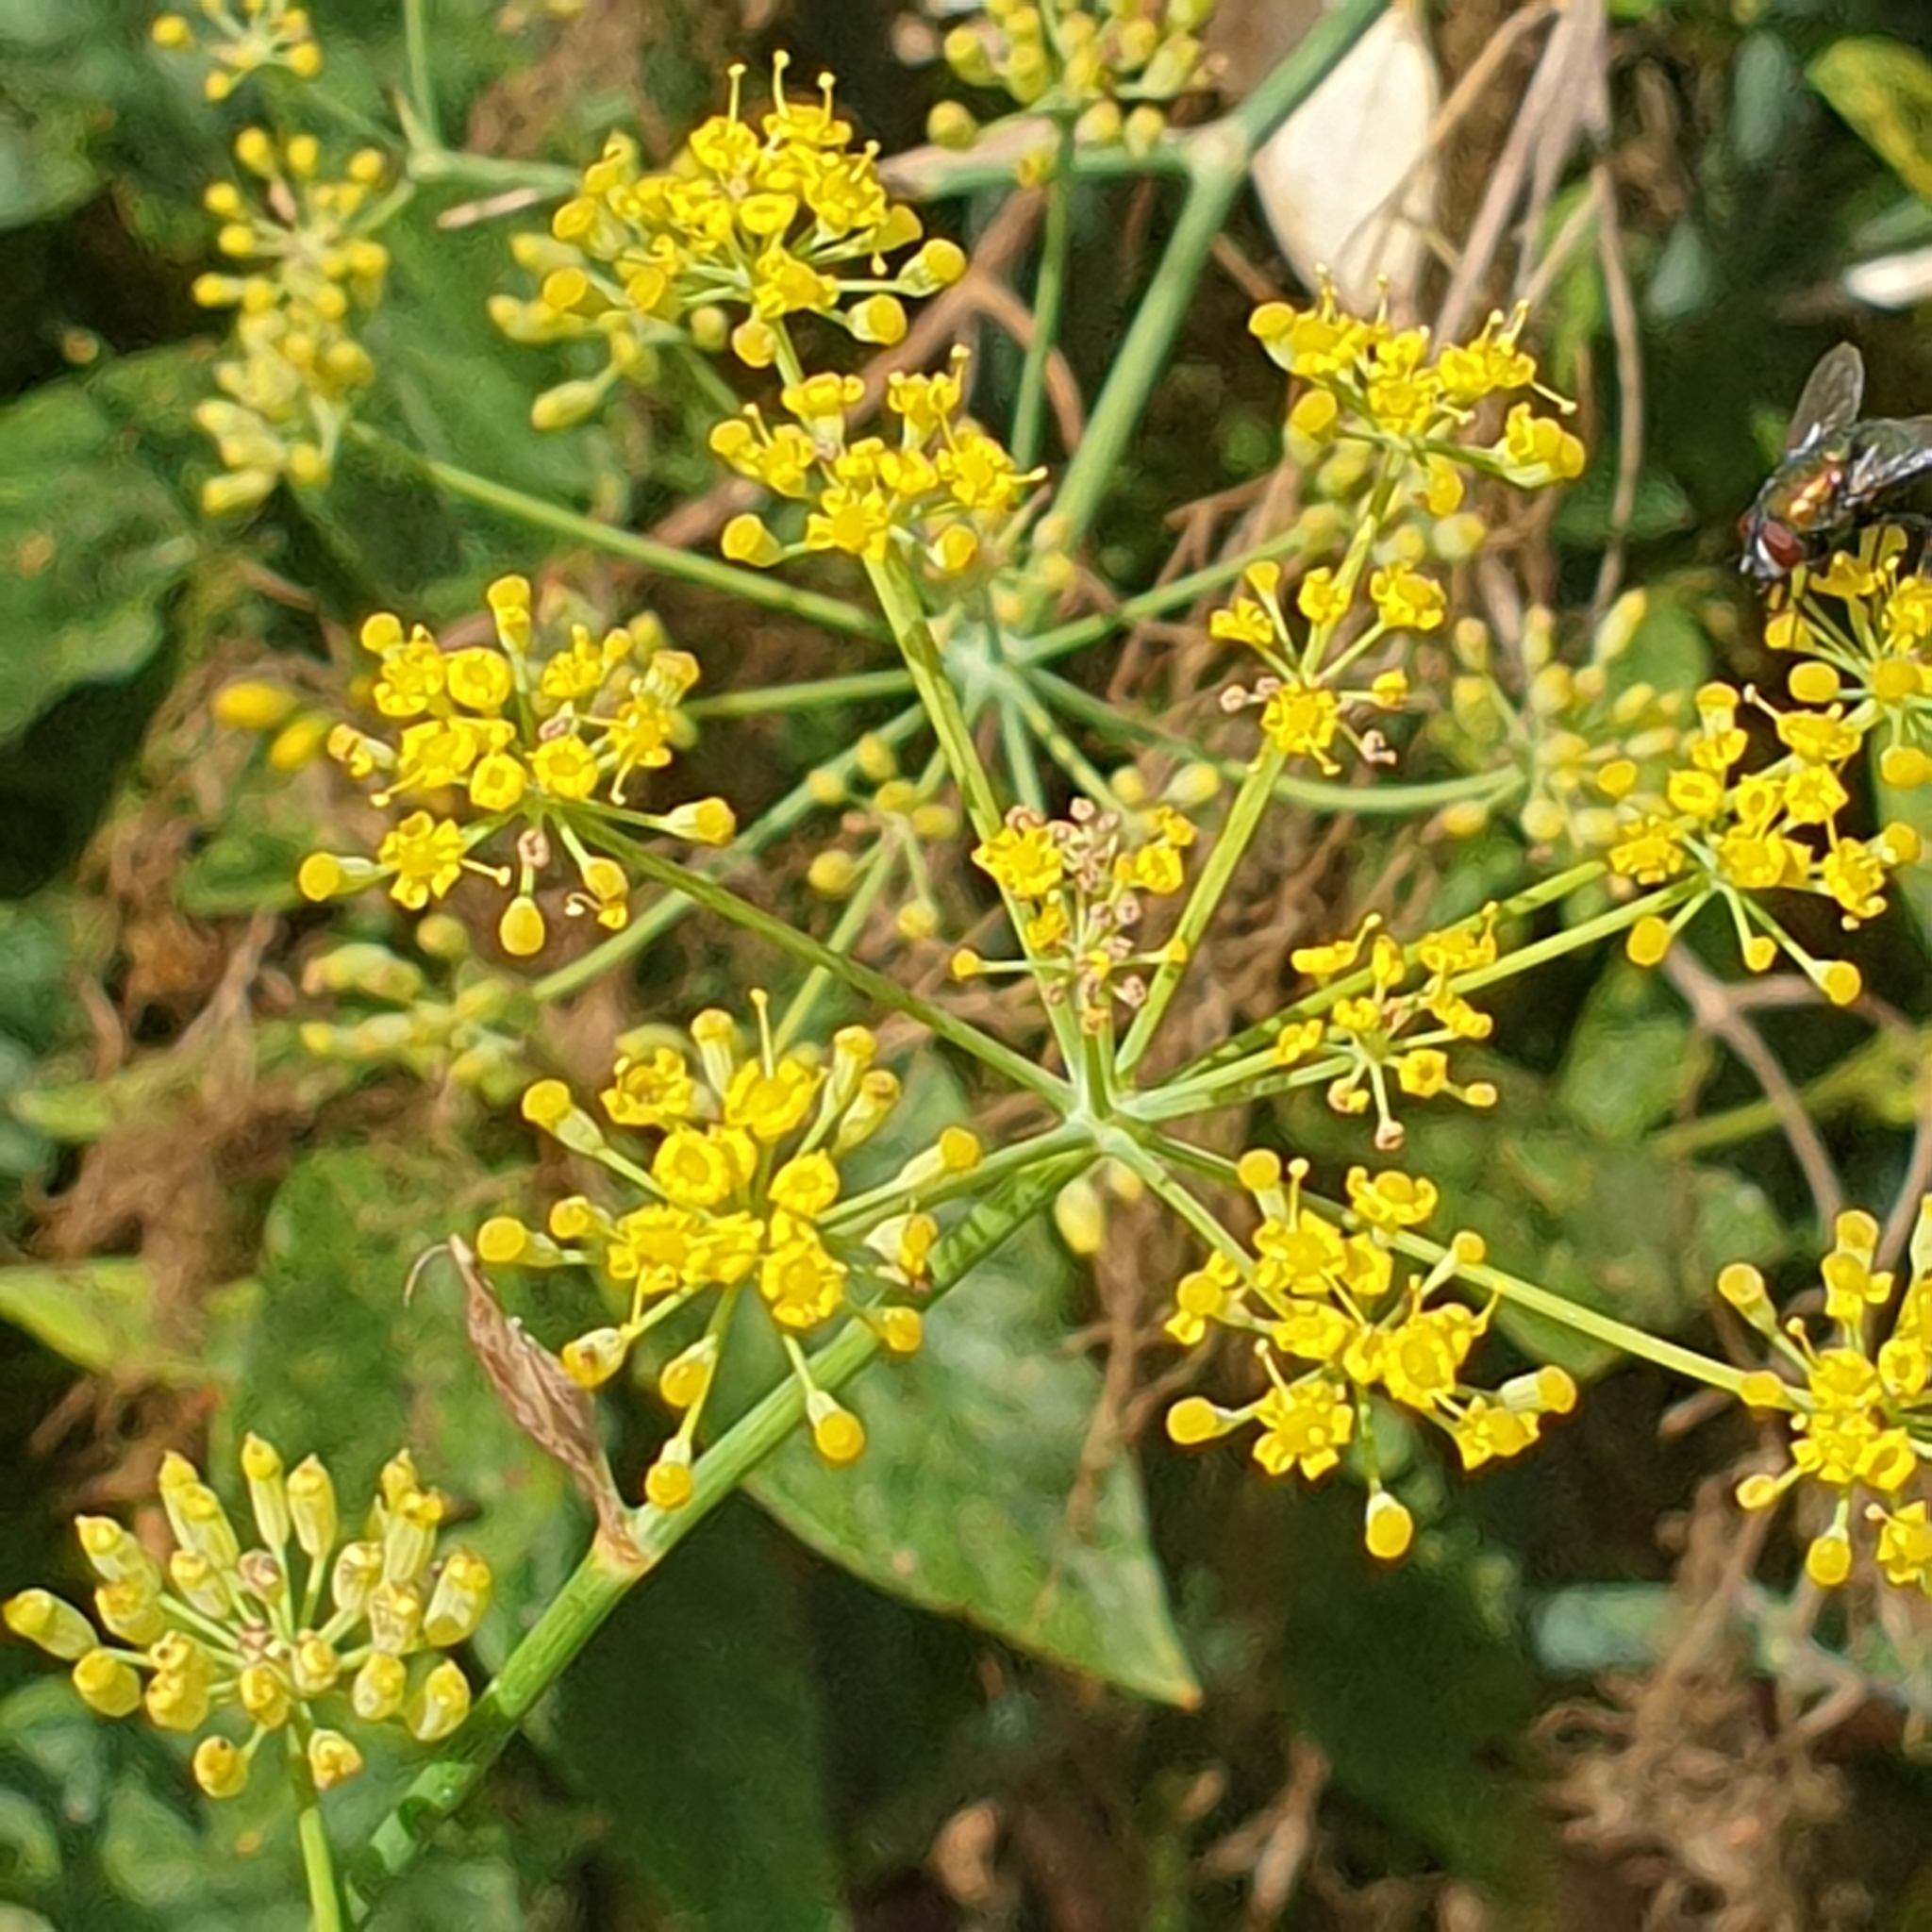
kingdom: Plantae
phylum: Tracheophyta
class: Magnoliopsida
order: Apiales
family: Apiaceae
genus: Foeniculum
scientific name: Foeniculum vulgare
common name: Fennel
